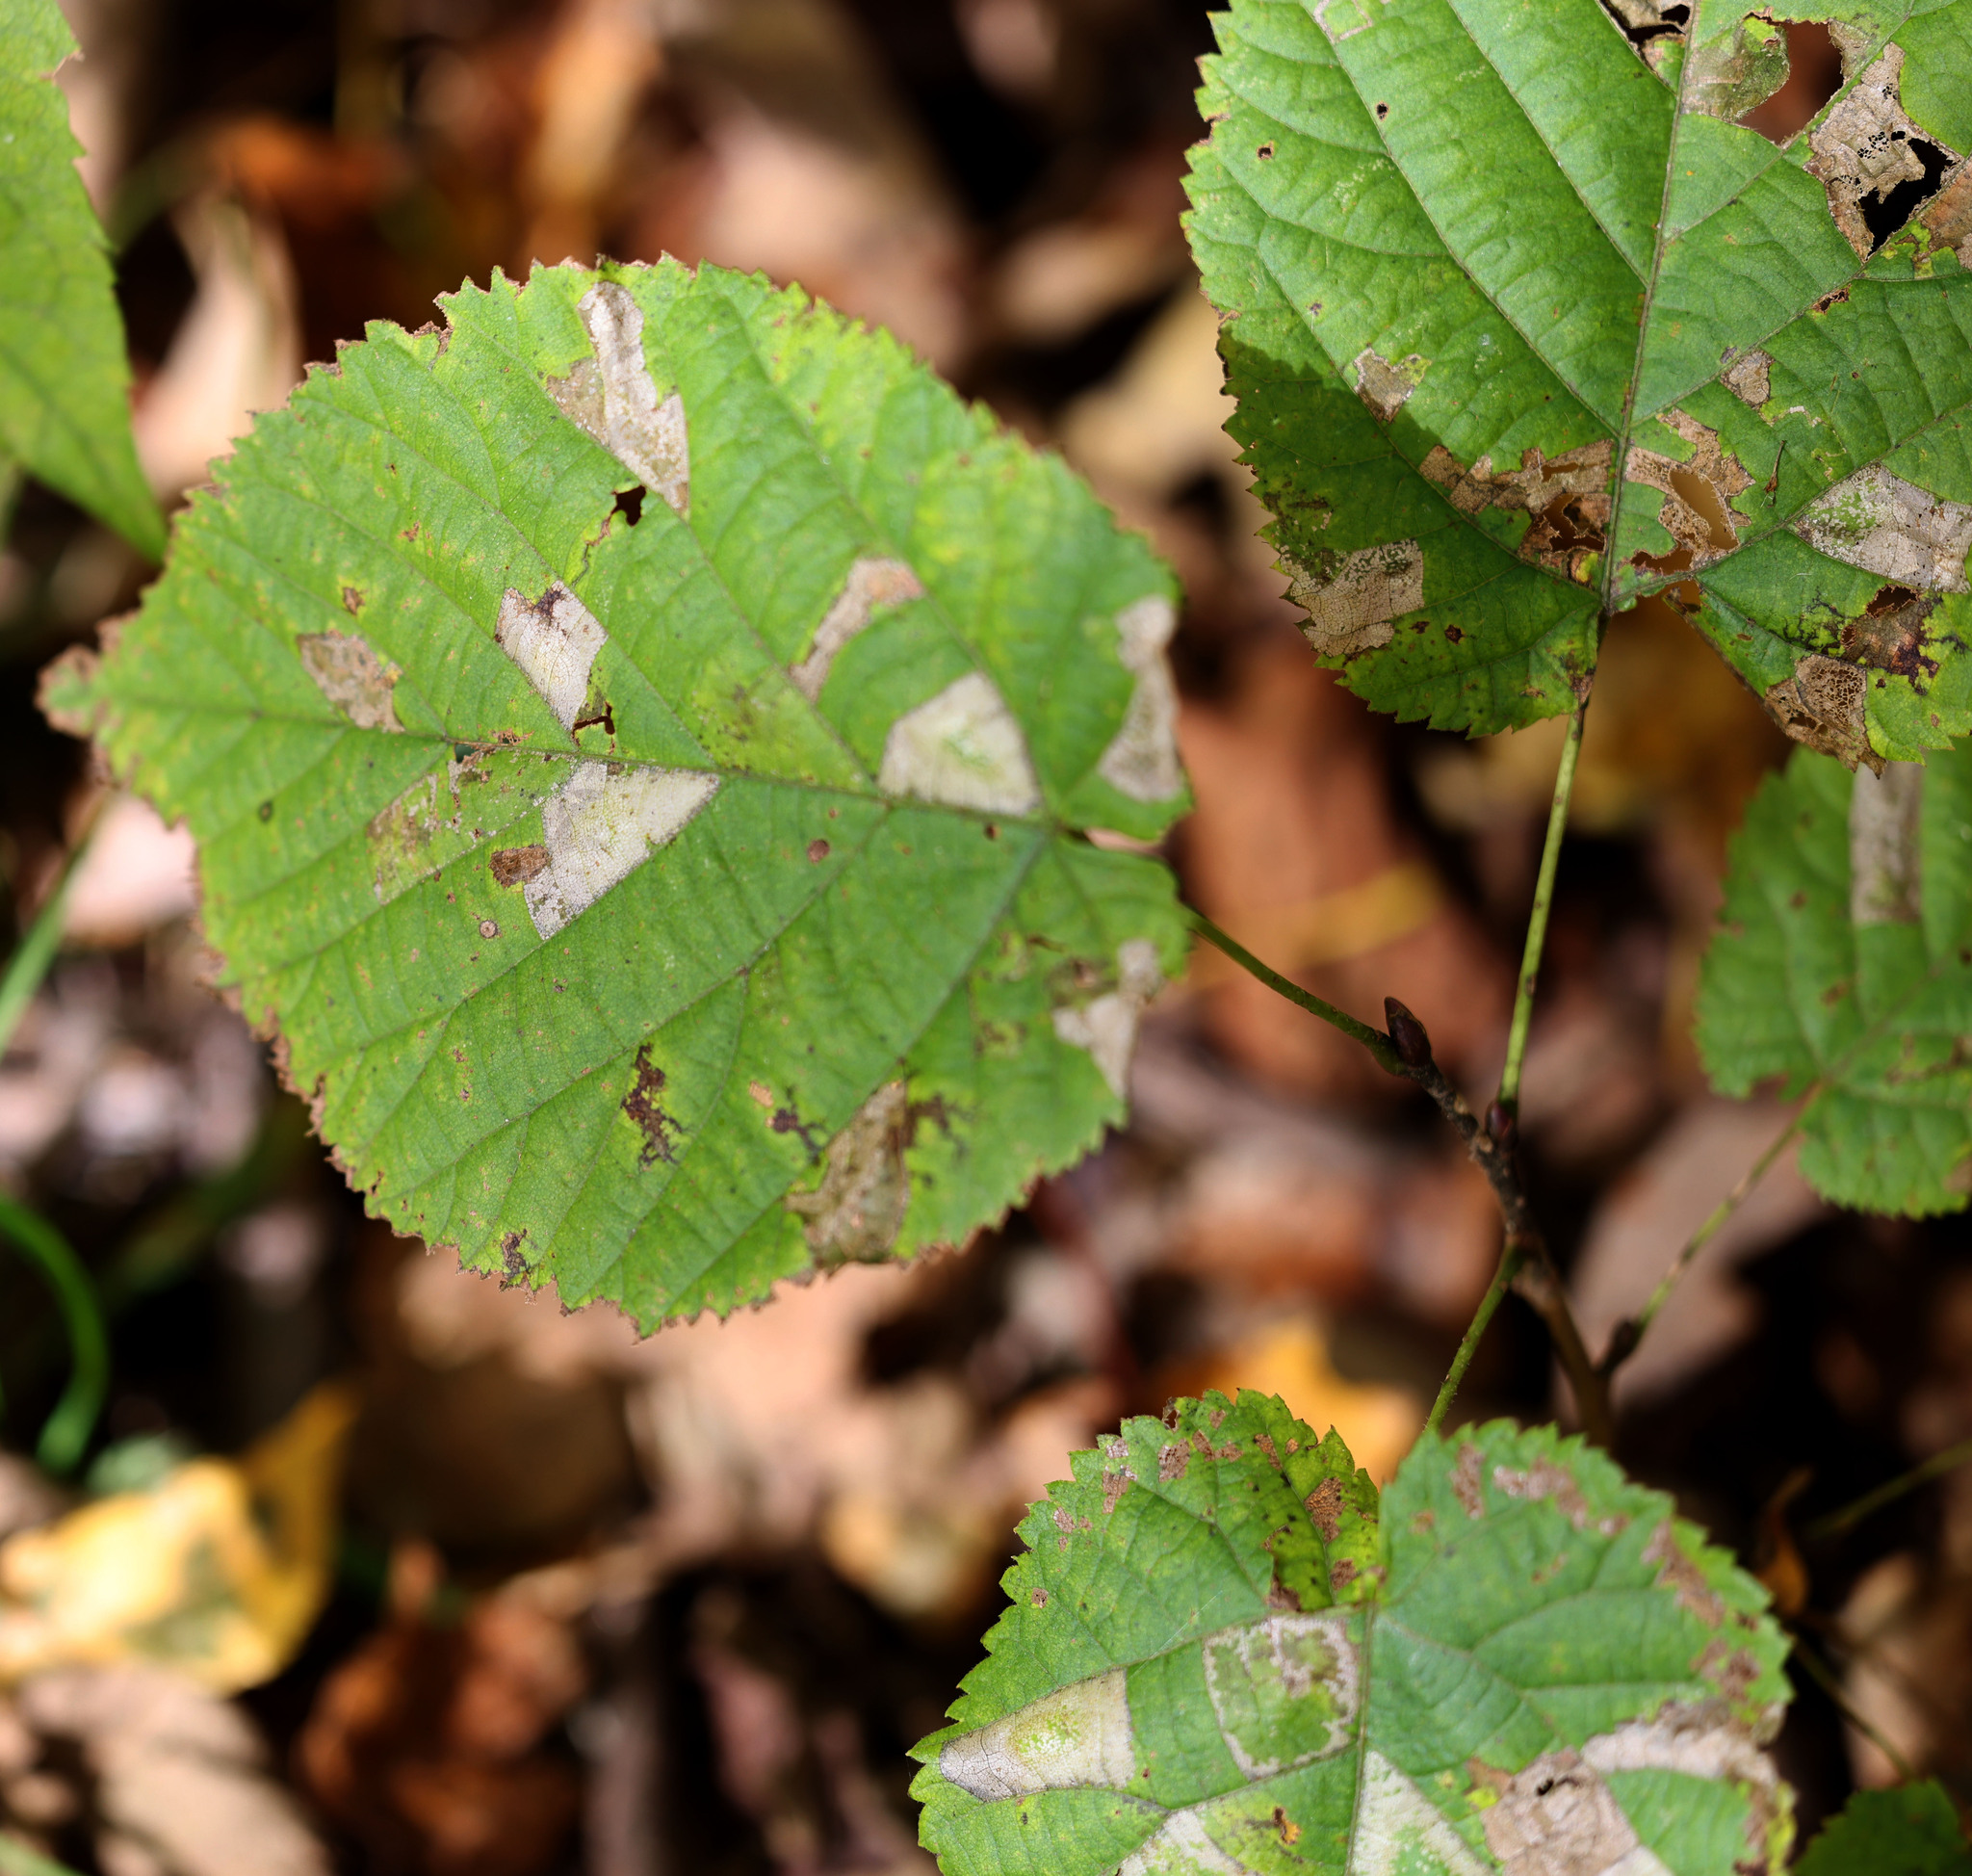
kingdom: Animalia
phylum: Arthropoda
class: Insecta
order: Lepidoptera
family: Gracillariidae
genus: Phyllonorycter
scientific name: Phyllonorycter lucetiella
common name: Basswood miner moth
